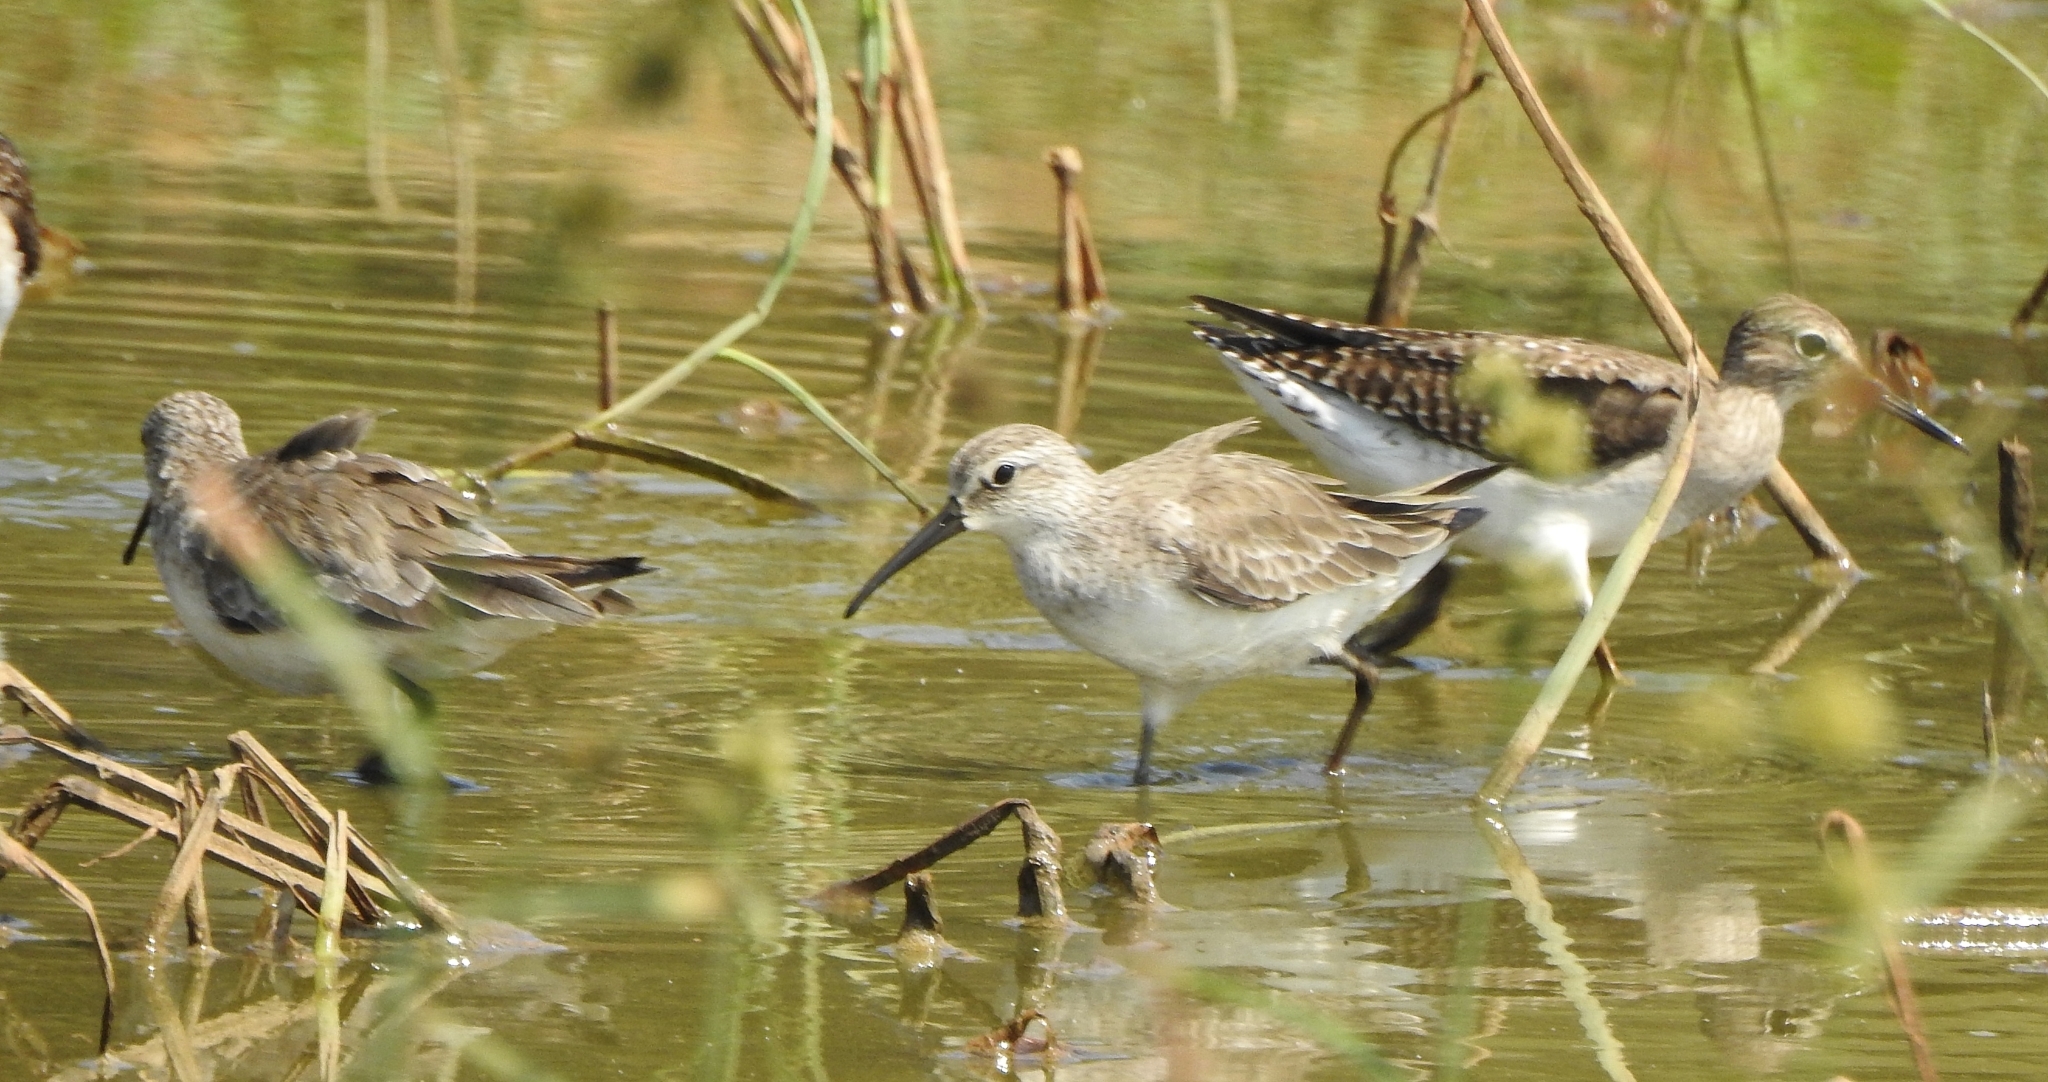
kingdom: Animalia
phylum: Chordata
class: Aves
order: Charadriiformes
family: Scolopacidae
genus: Calidris
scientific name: Calidris ferruginea
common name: Curlew sandpiper
